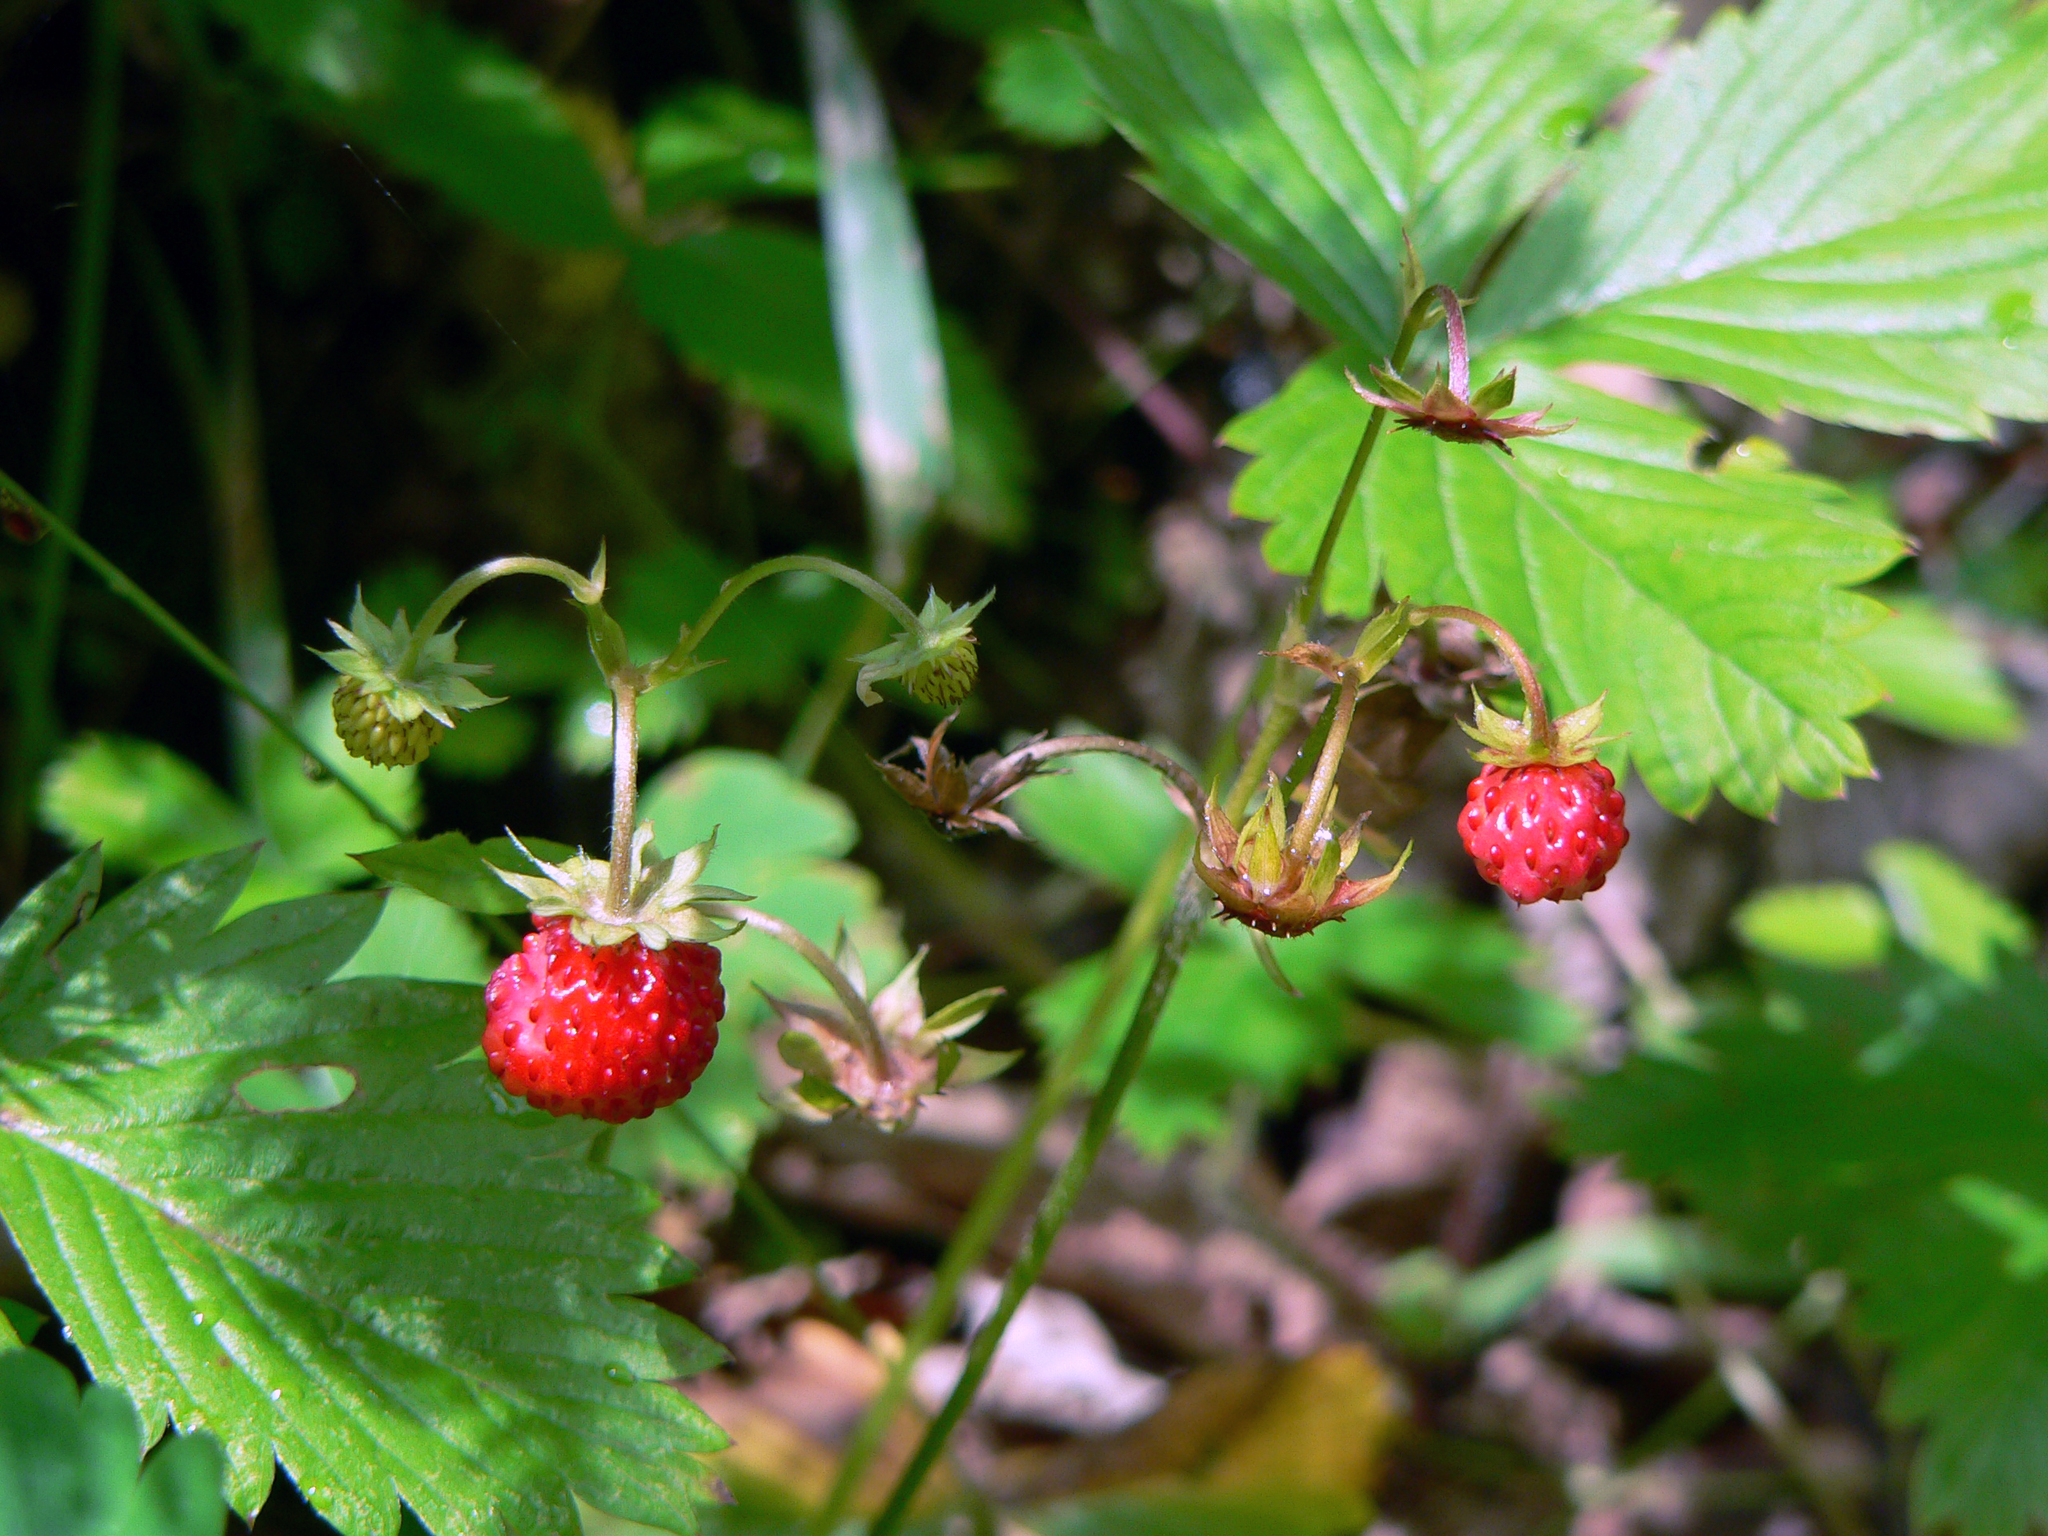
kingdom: Plantae
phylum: Tracheophyta
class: Magnoliopsida
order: Rosales
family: Rosaceae
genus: Fragaria
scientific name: Fragaria vesca
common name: Wild strawberry
